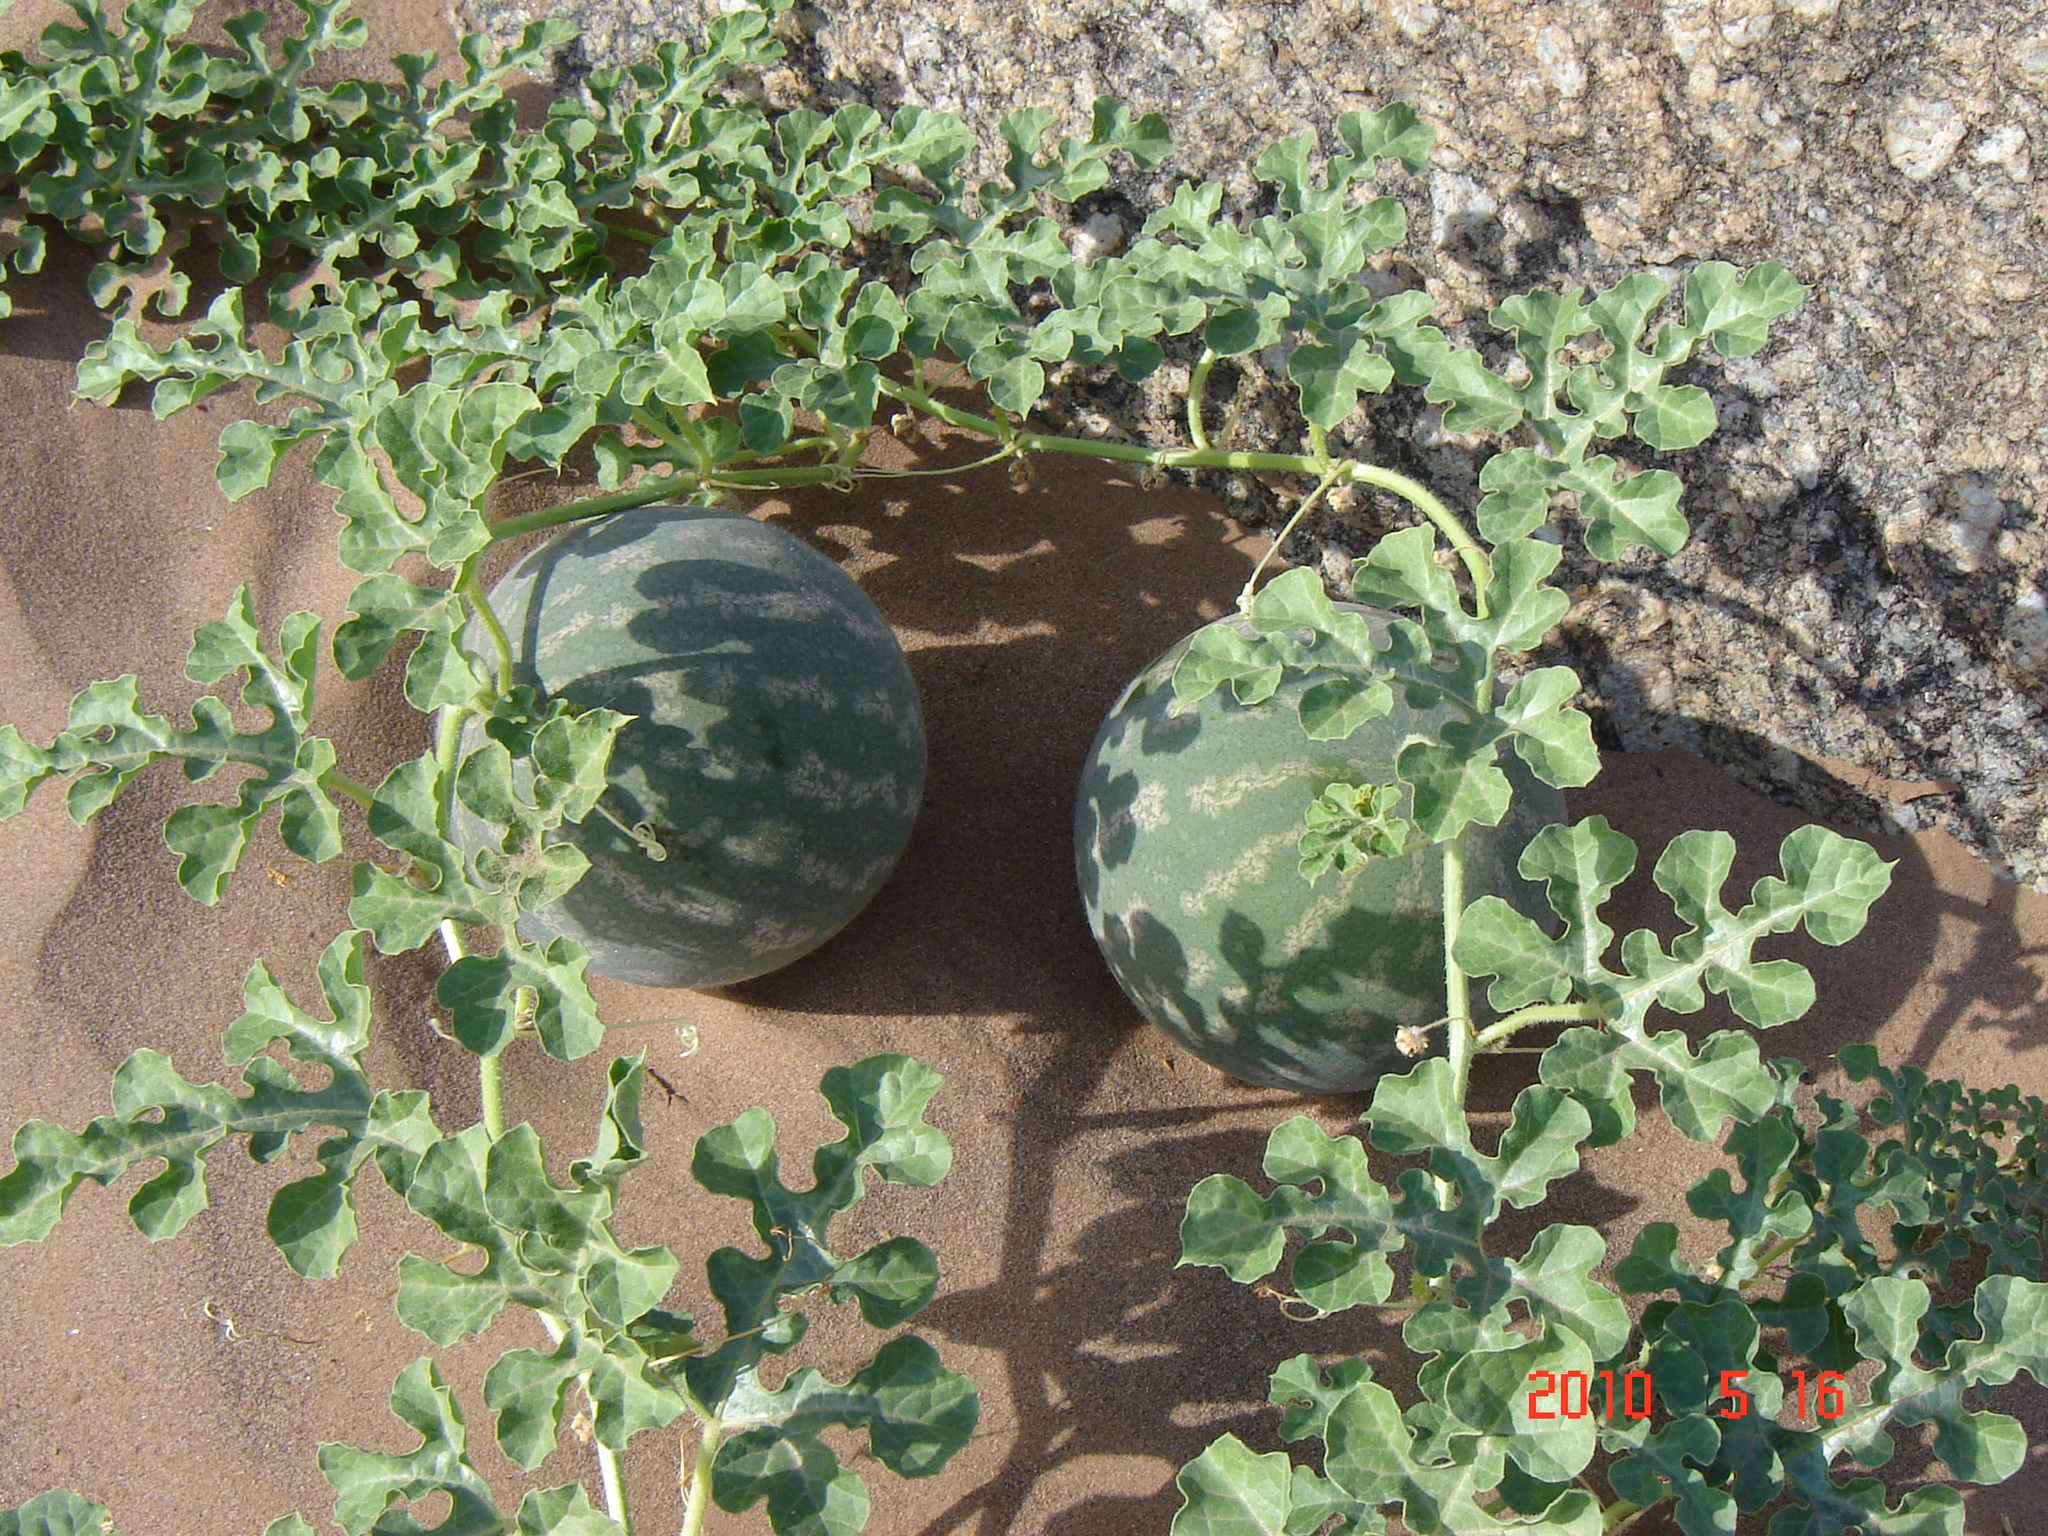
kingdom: Plantae
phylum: Tracheophyta
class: Magnoliopsida
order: Cucurbitales
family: Cucurbitaceae
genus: Citrullus
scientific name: Citrullus amarus
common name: Fodder-melon
